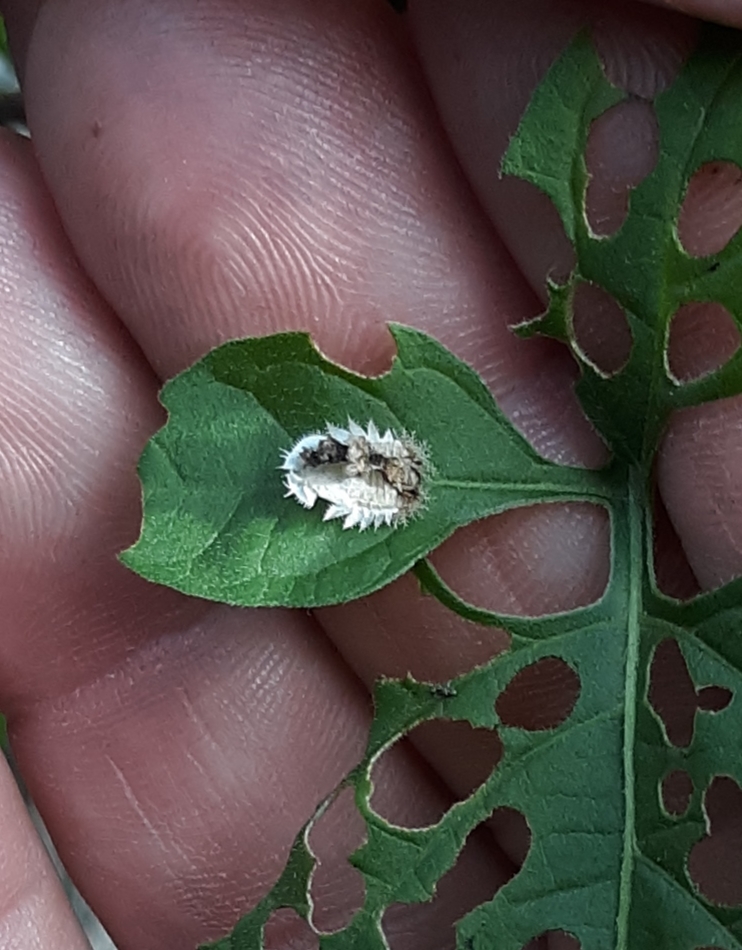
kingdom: Animalia
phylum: Arthropoda
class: Insecta
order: Coleoptera
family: Chrysomelidae
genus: Helocassis
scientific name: Helocassis clavata
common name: Clavate tortoise beetle
